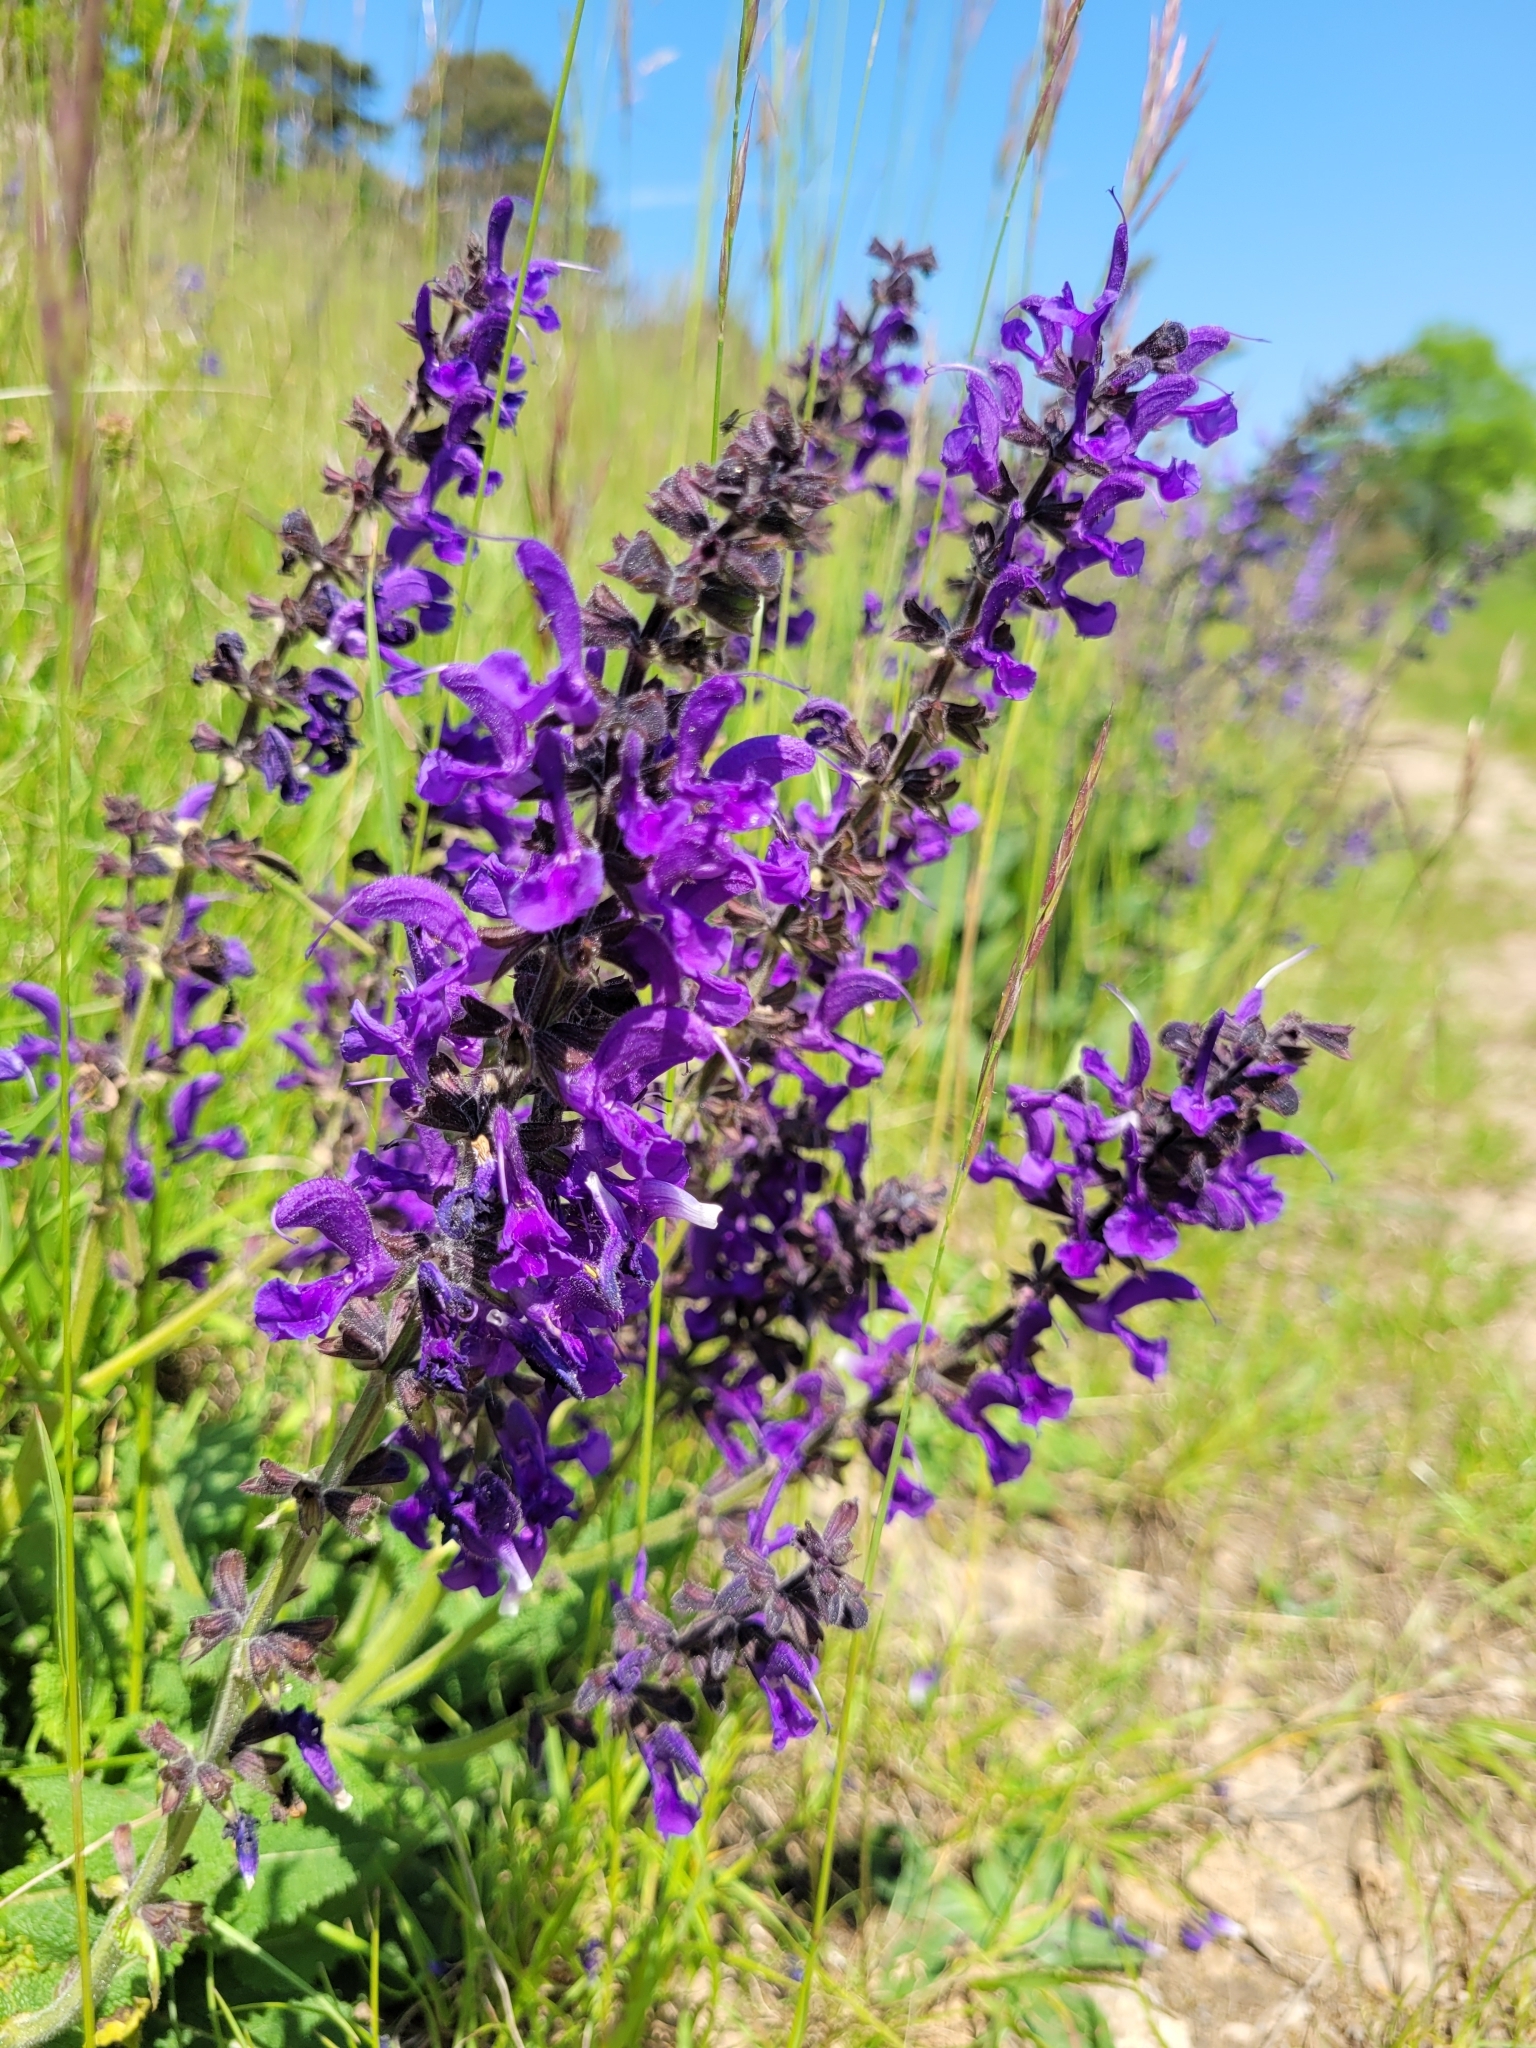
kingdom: Plantae
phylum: Tracheophyta
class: Magnoliopsida
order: Lamiales
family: Lamiaceae
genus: Salvia
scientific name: Salvia pratensis
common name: Meadow sage
